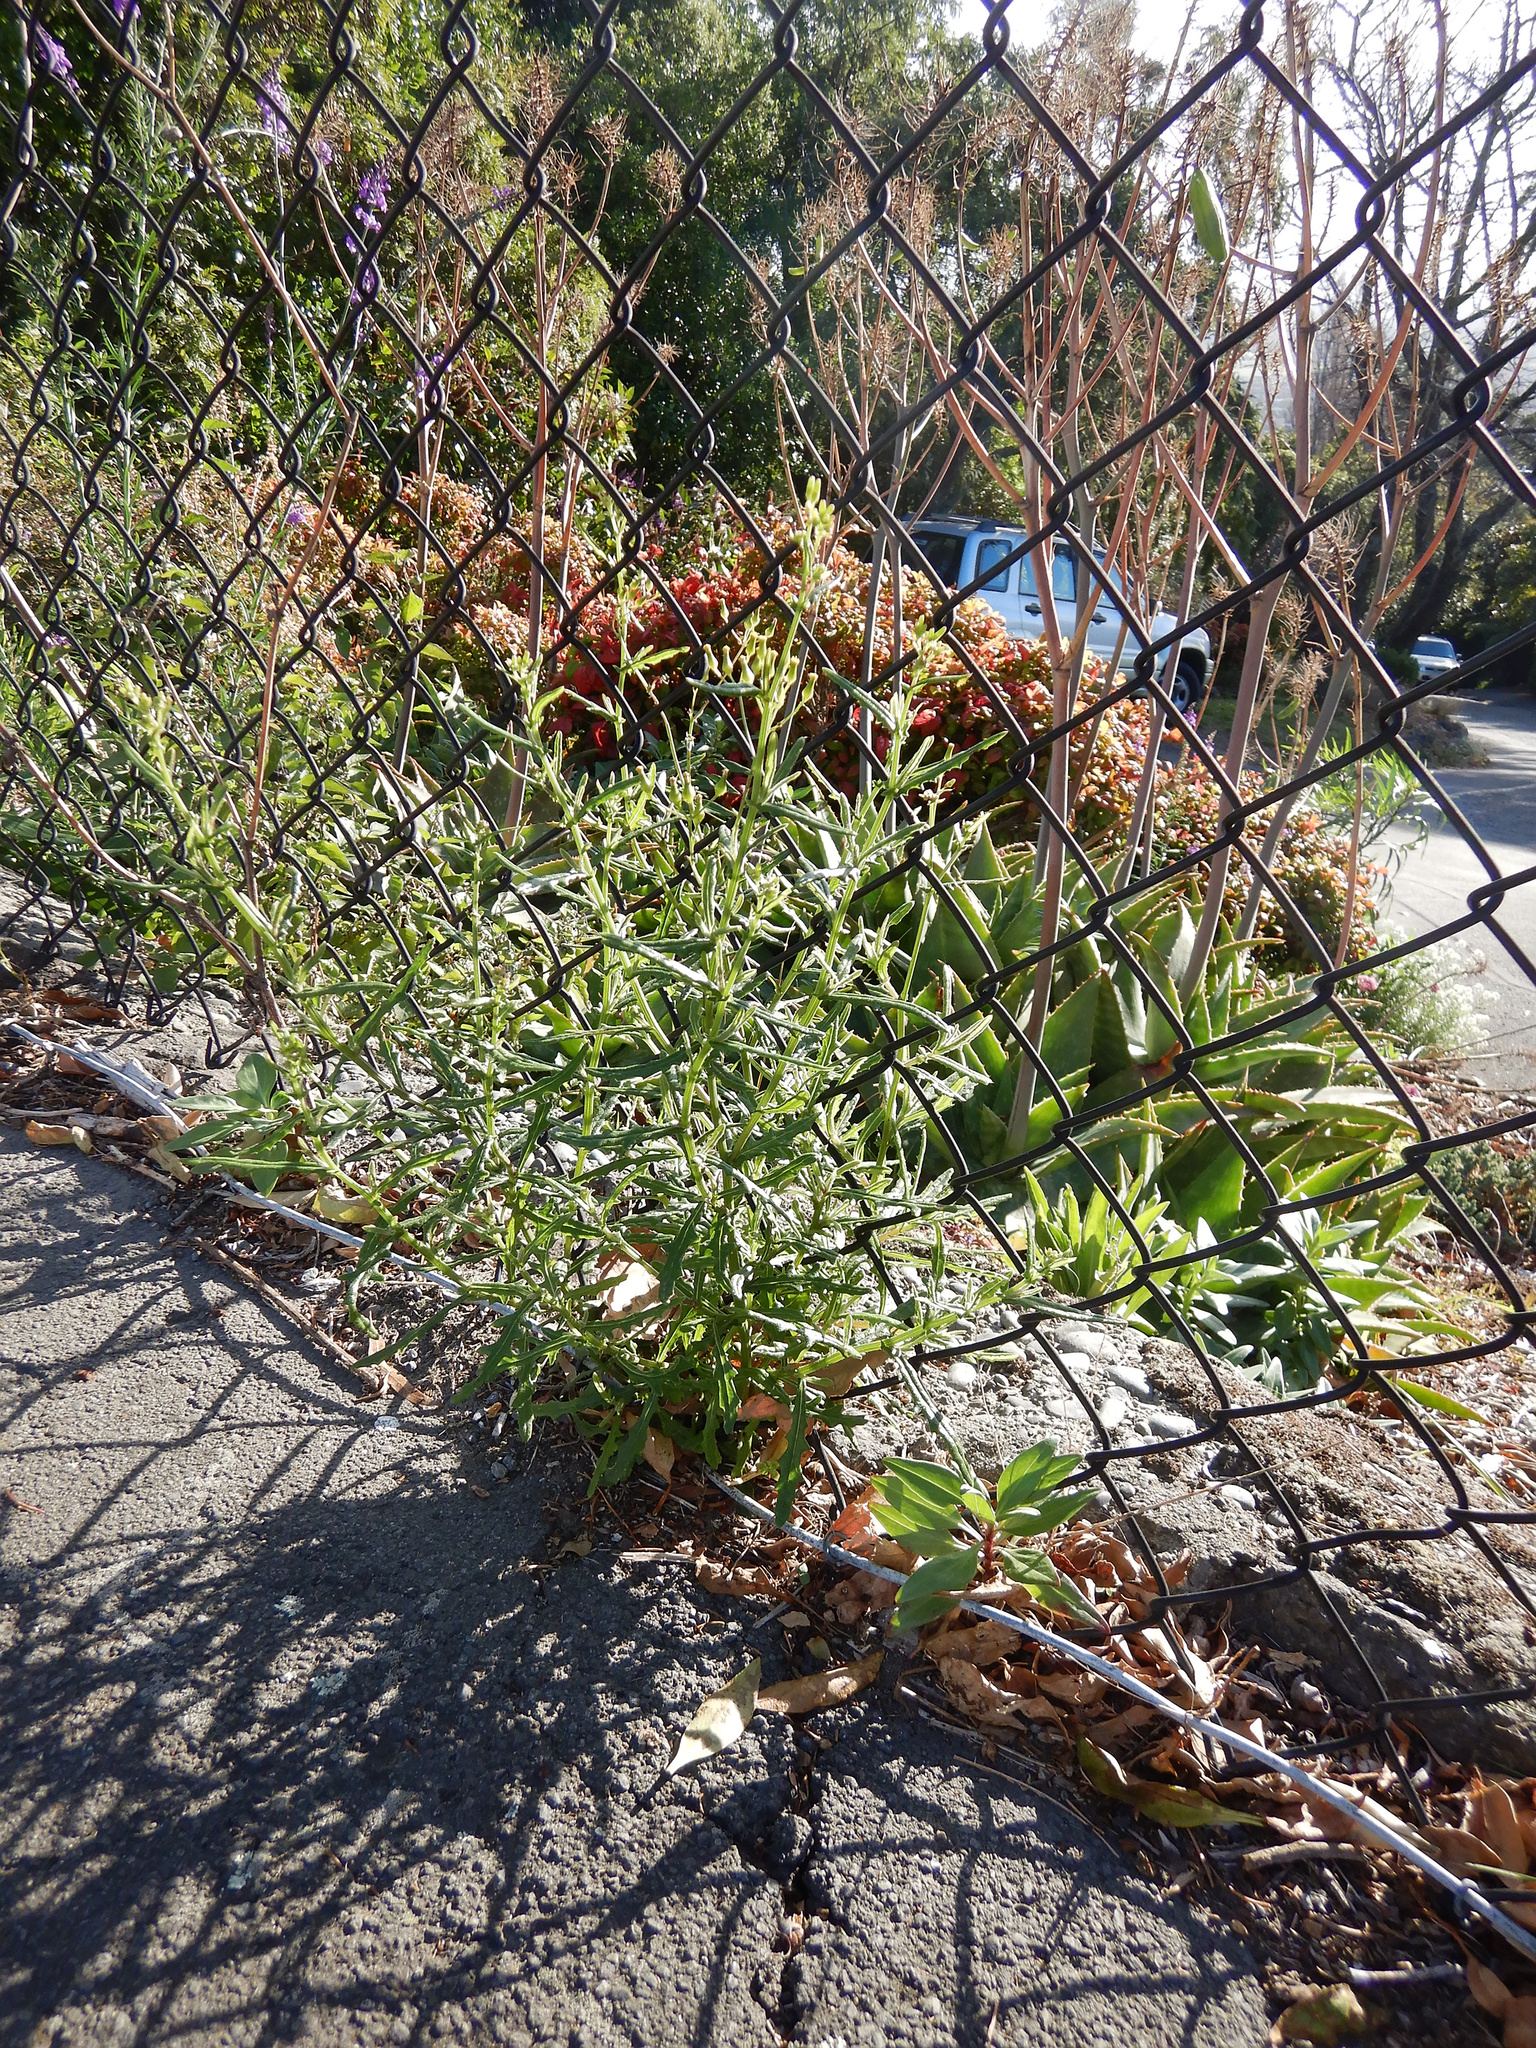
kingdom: Plantae
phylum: Tracheophyta
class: Magnoliopsida
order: Asterales
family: Asteraceae
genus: Senecio
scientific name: Senecio hispidulus
